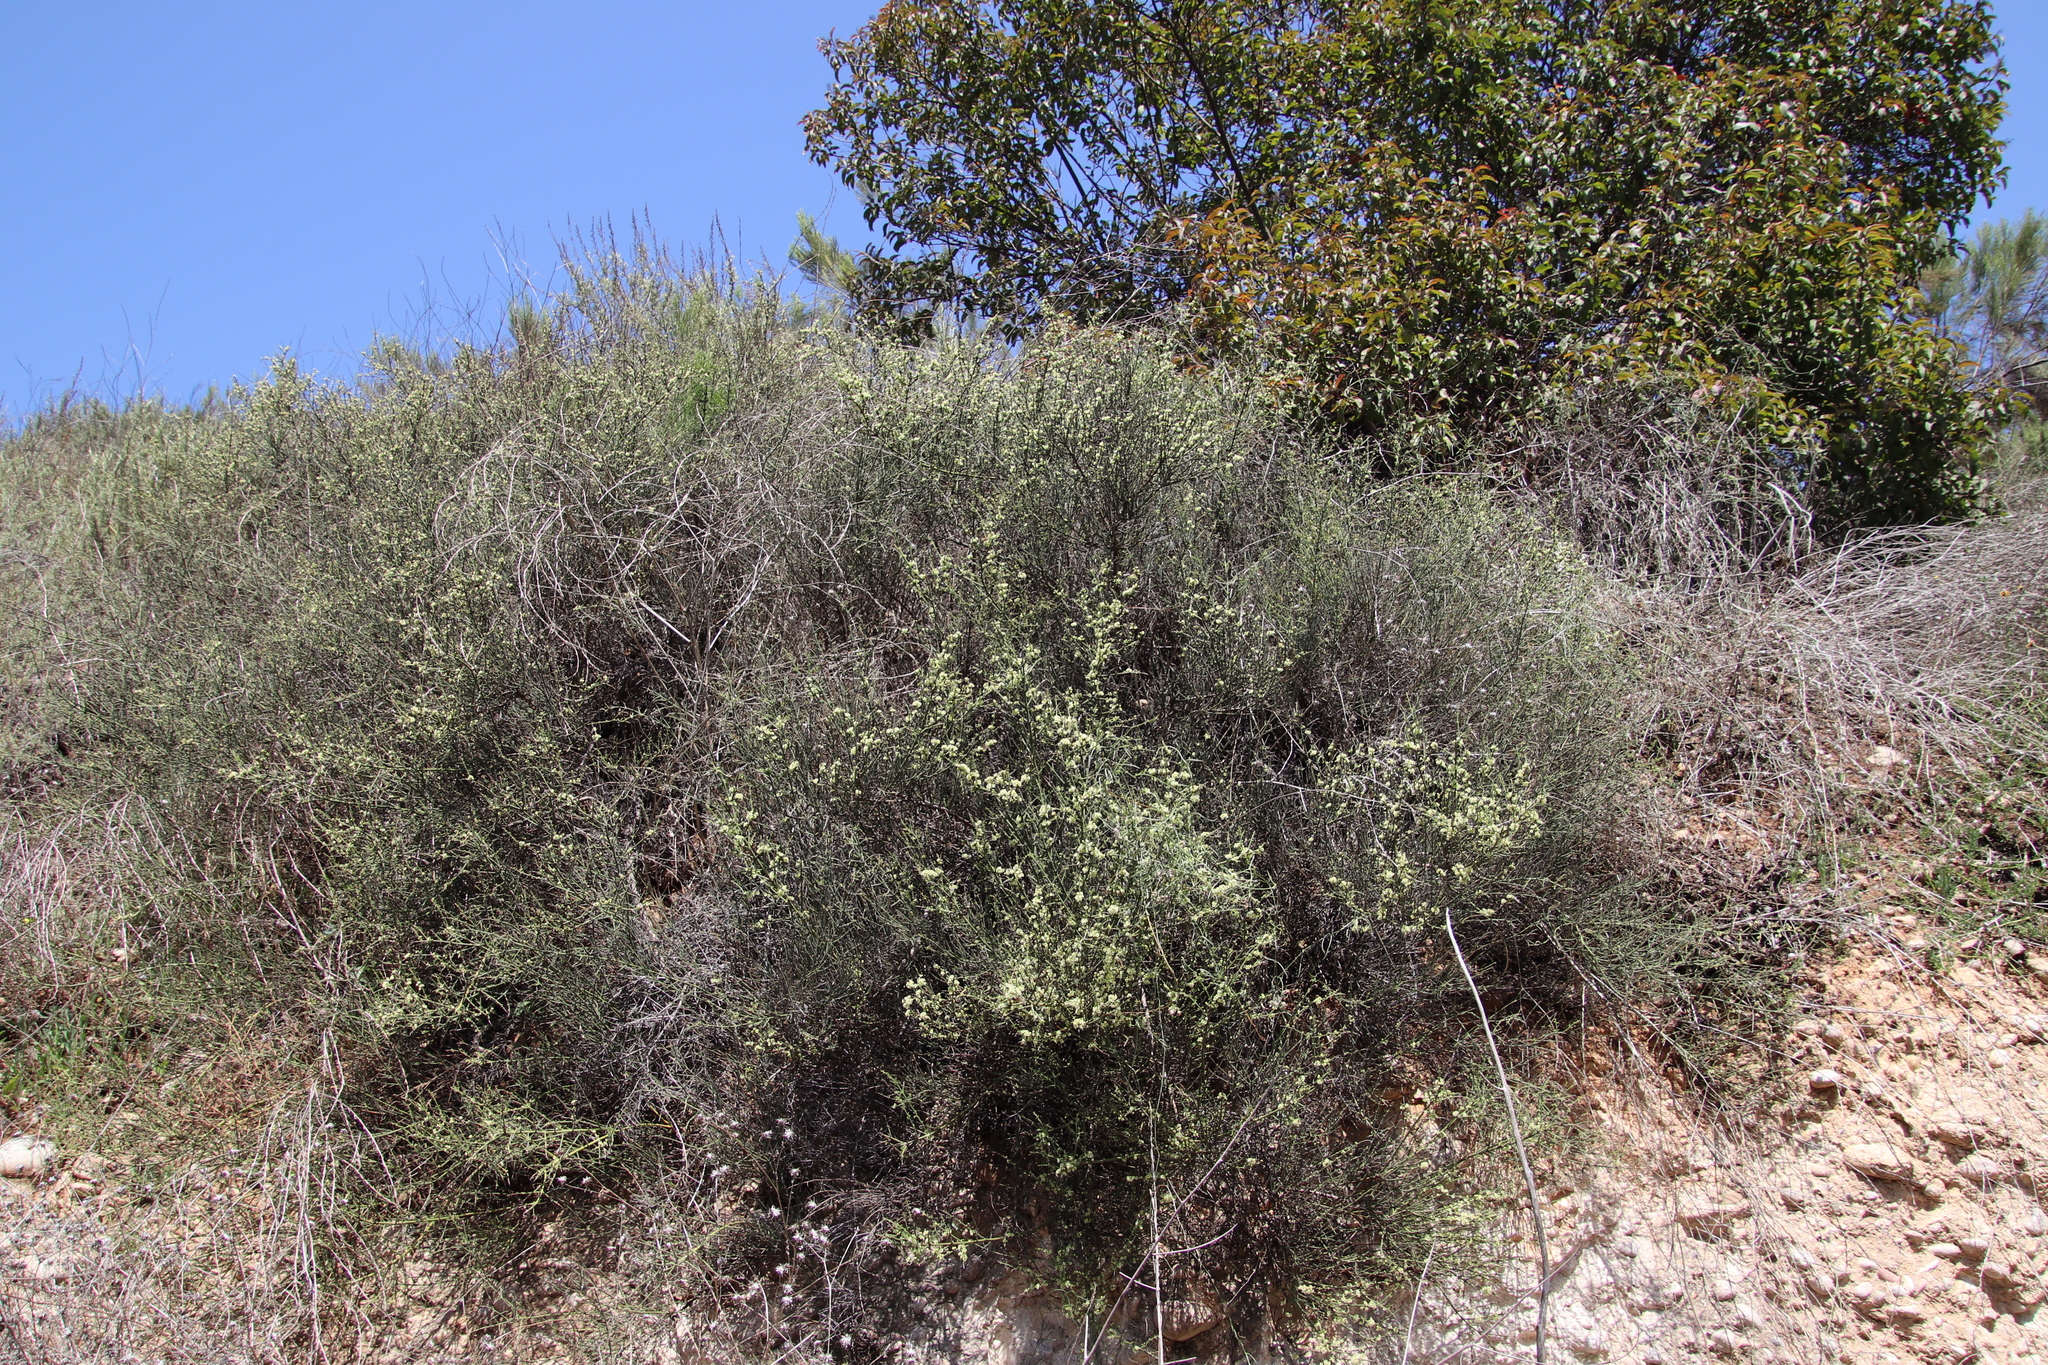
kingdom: Plantae
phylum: Tracheophyta
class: Magnoliopsida
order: Rosales
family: Rhamnaceae
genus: Adolphia
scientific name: Adolphia californica
